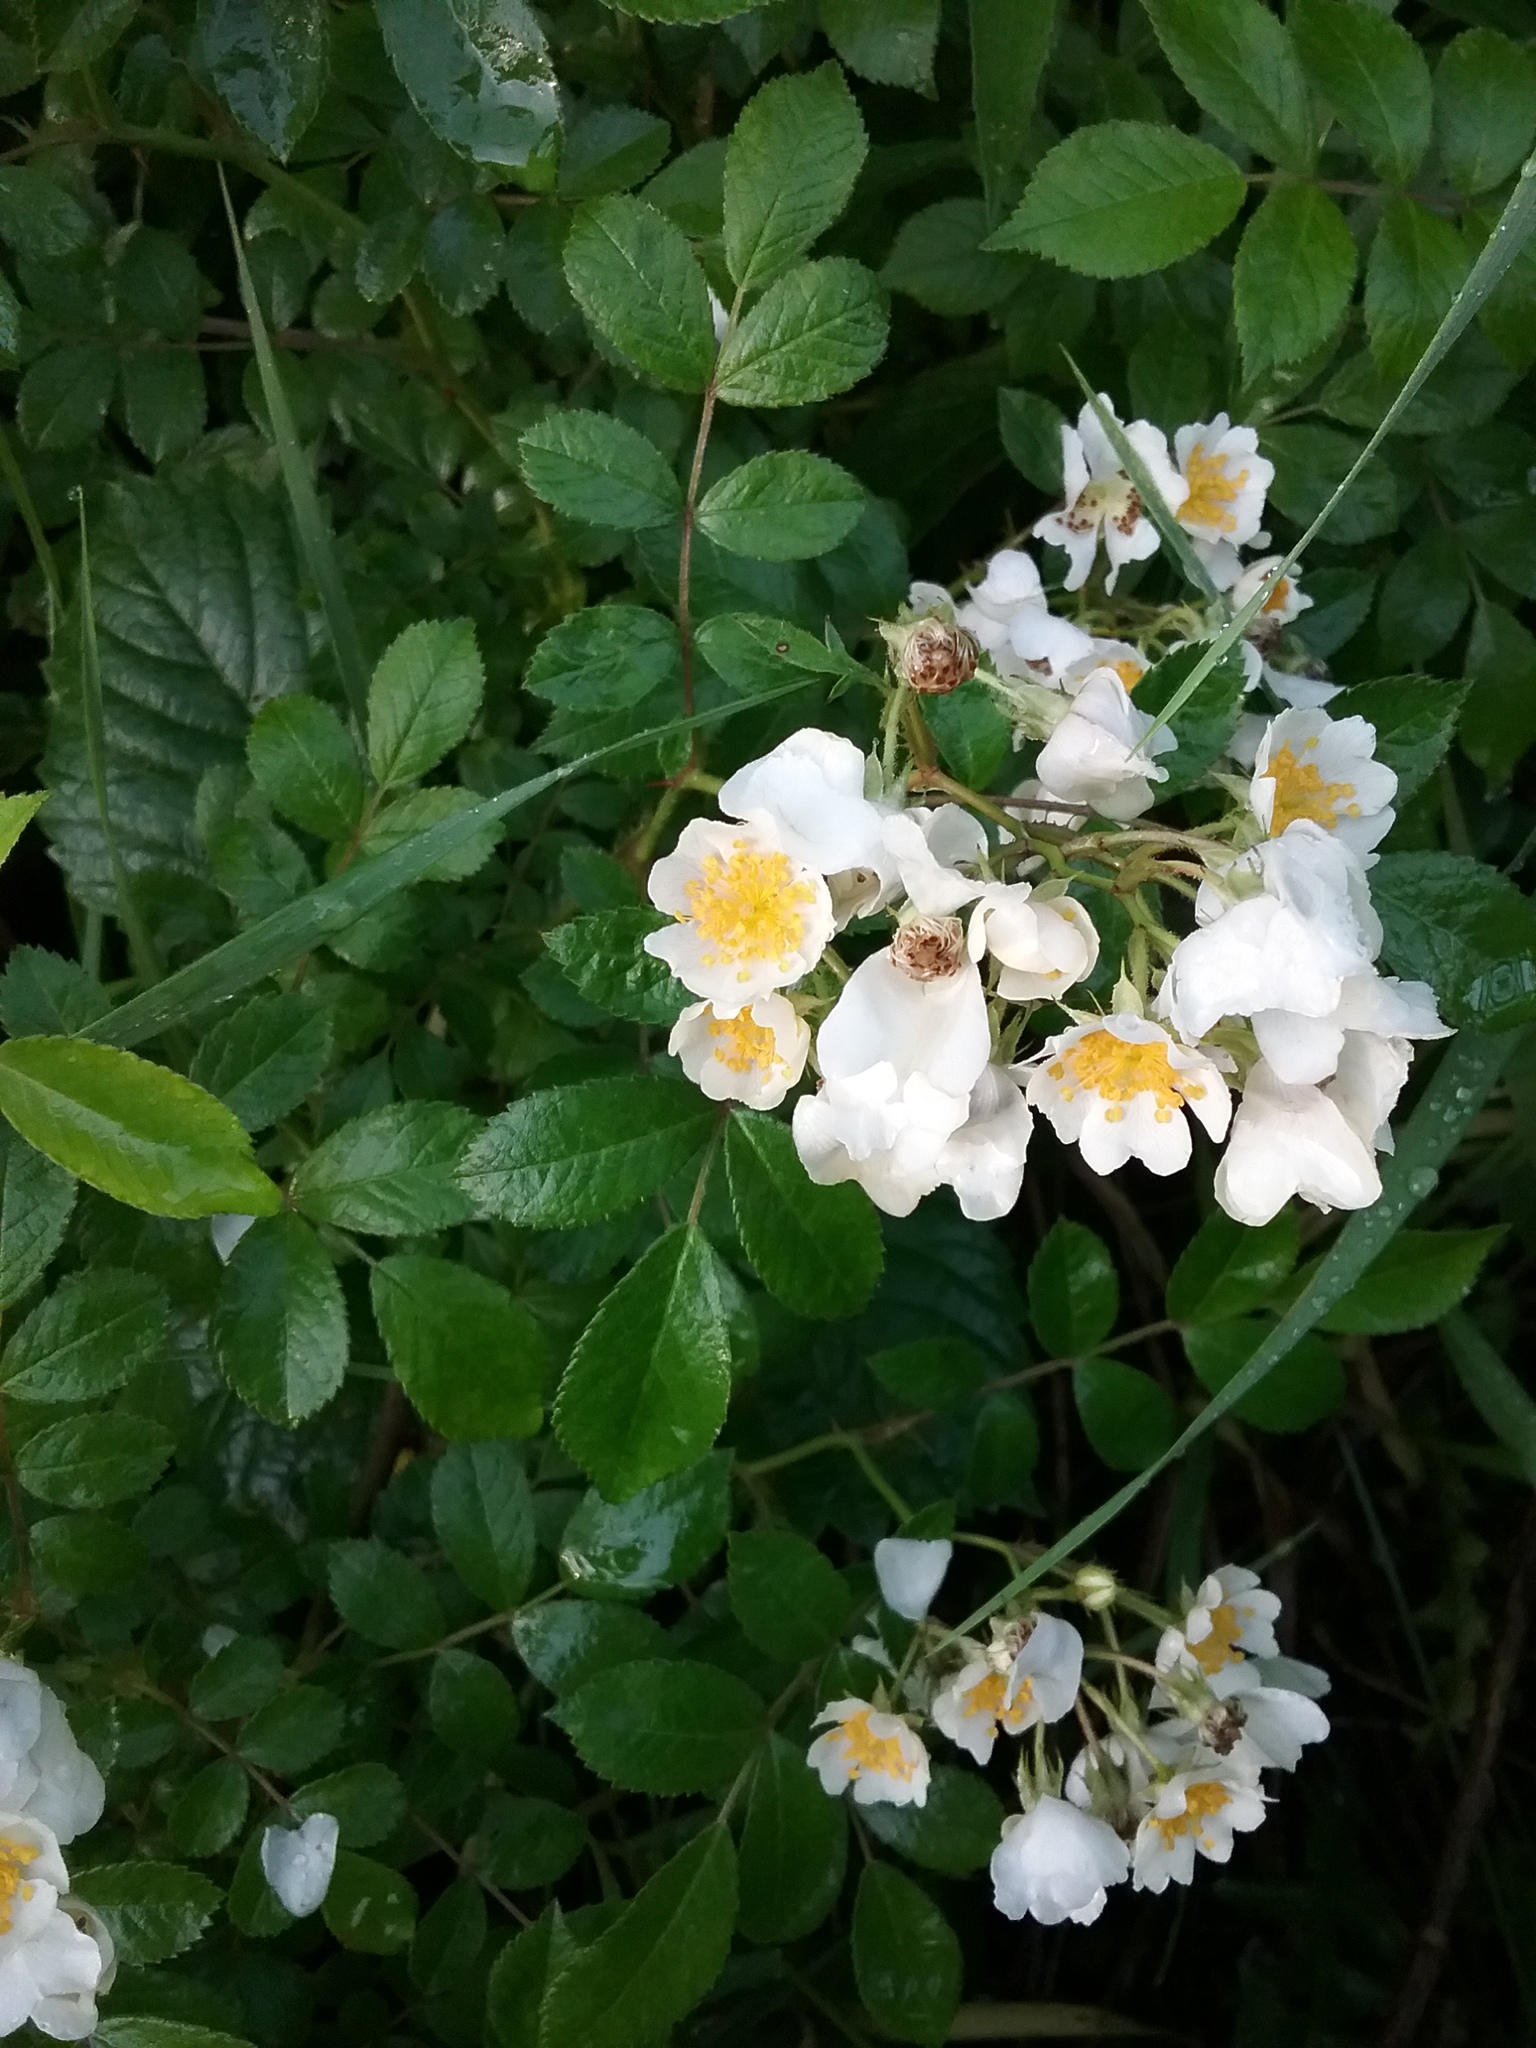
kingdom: Plantae
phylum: Tracheophyta
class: Magnoliopsida
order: Rosales
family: Rosaceae
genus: Rosa
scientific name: Rosa multiflora
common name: Multiflora rose
